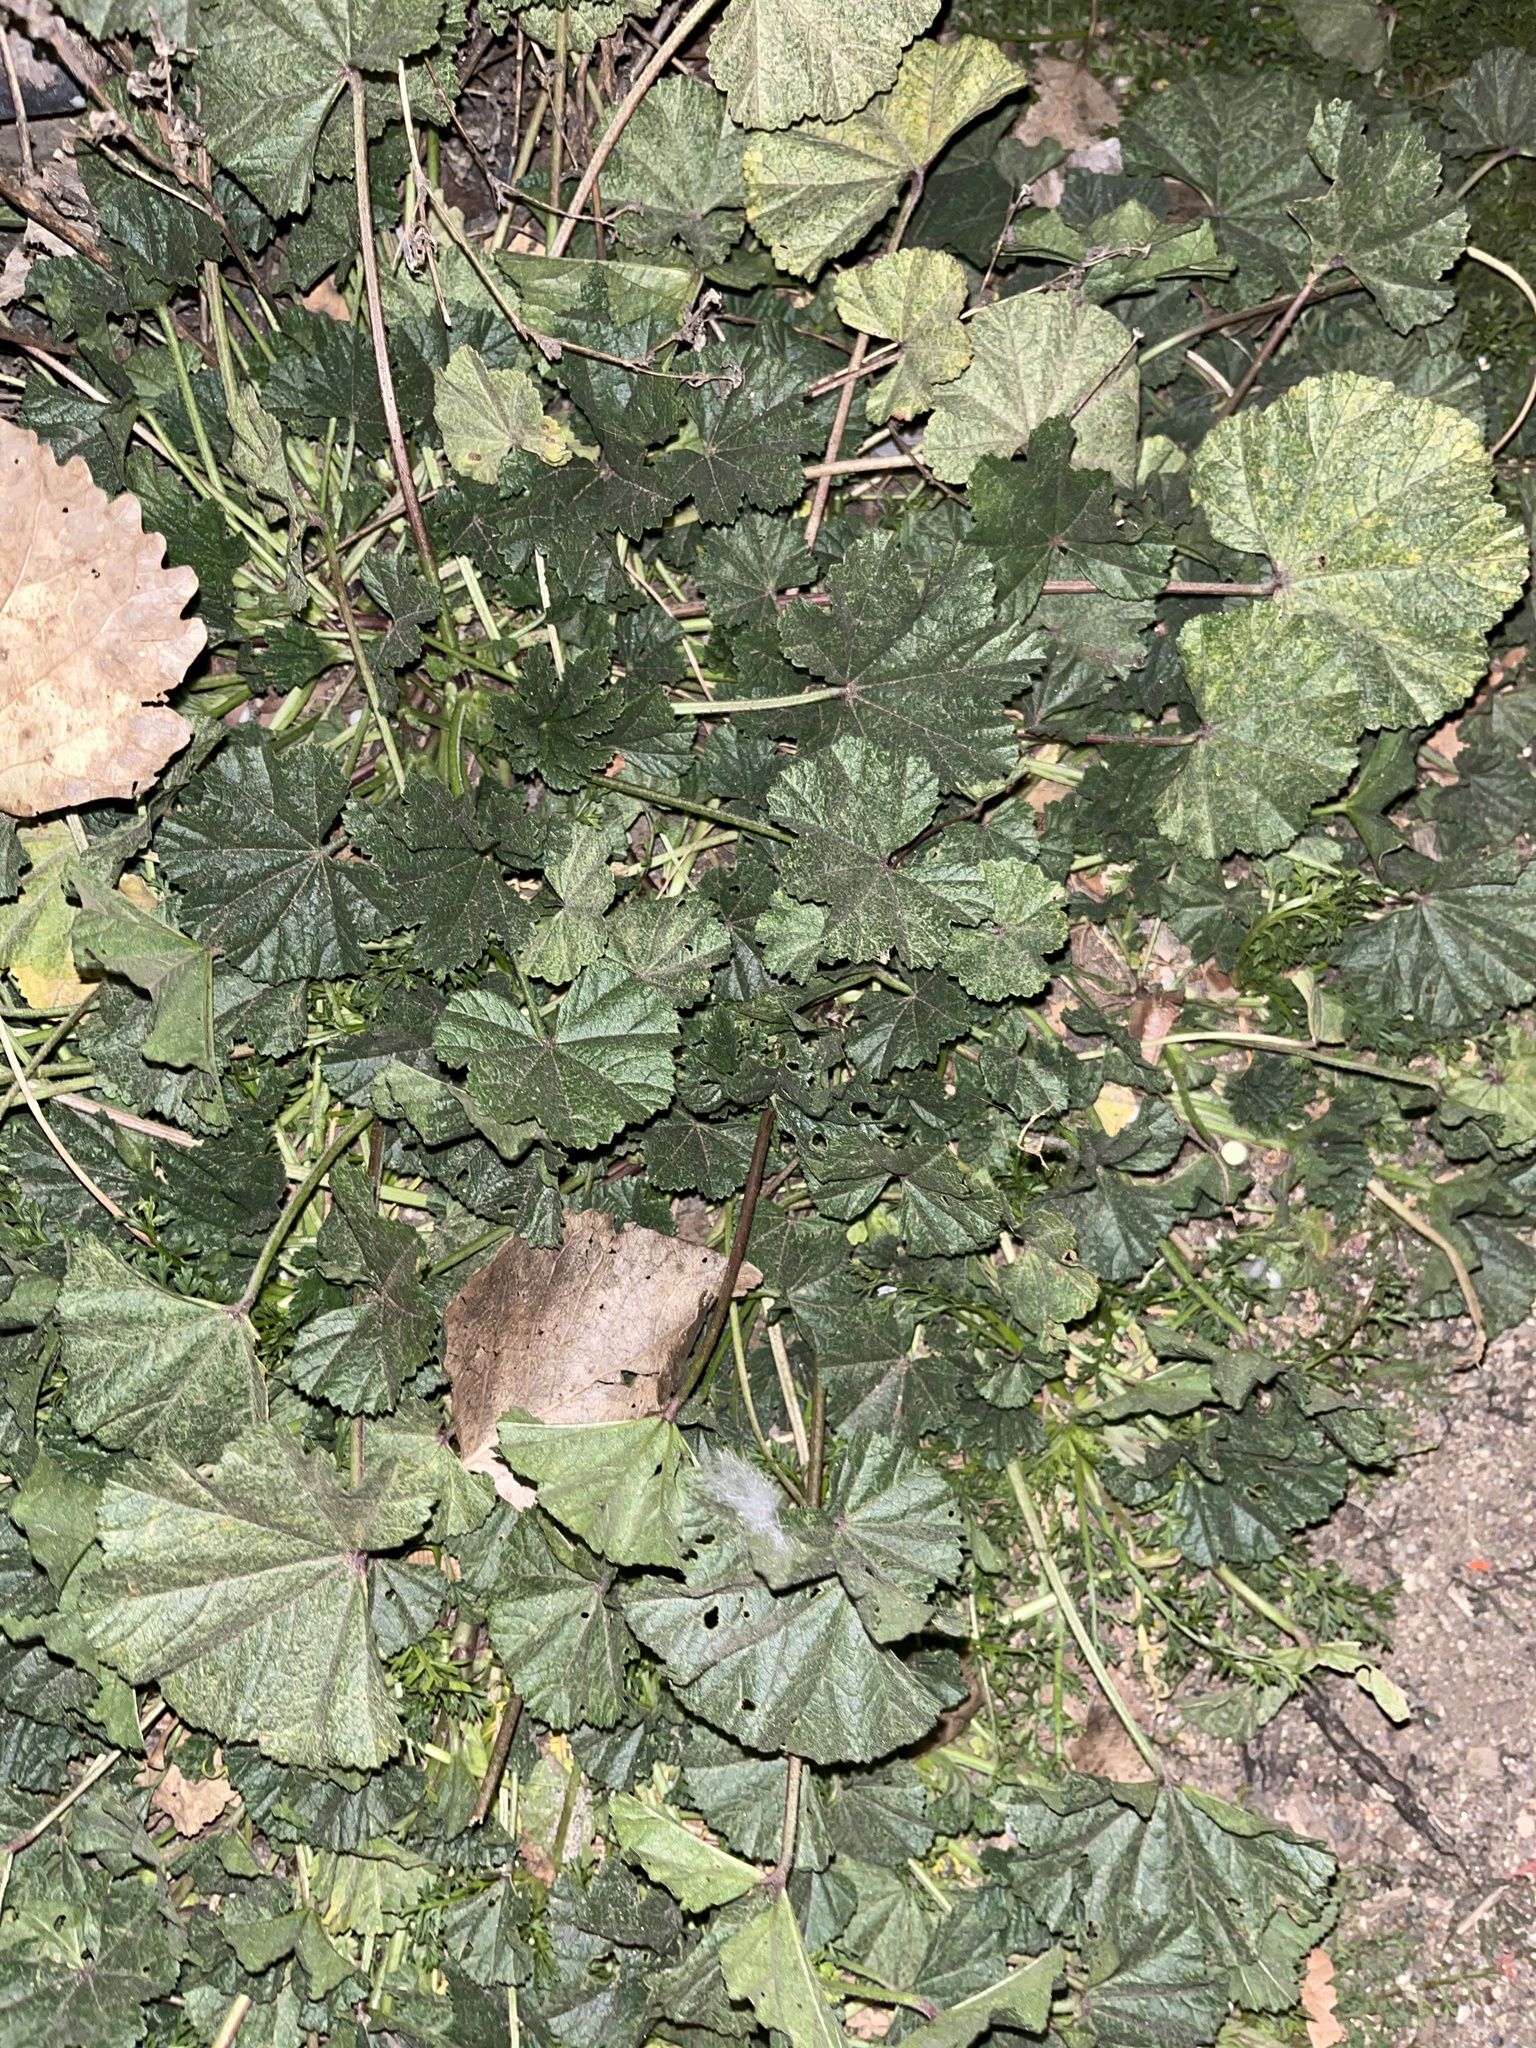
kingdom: Plantae
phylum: Tracheophyta
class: Magnoliopsida
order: Malvales
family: Malvaceae
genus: Malva
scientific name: Malva
